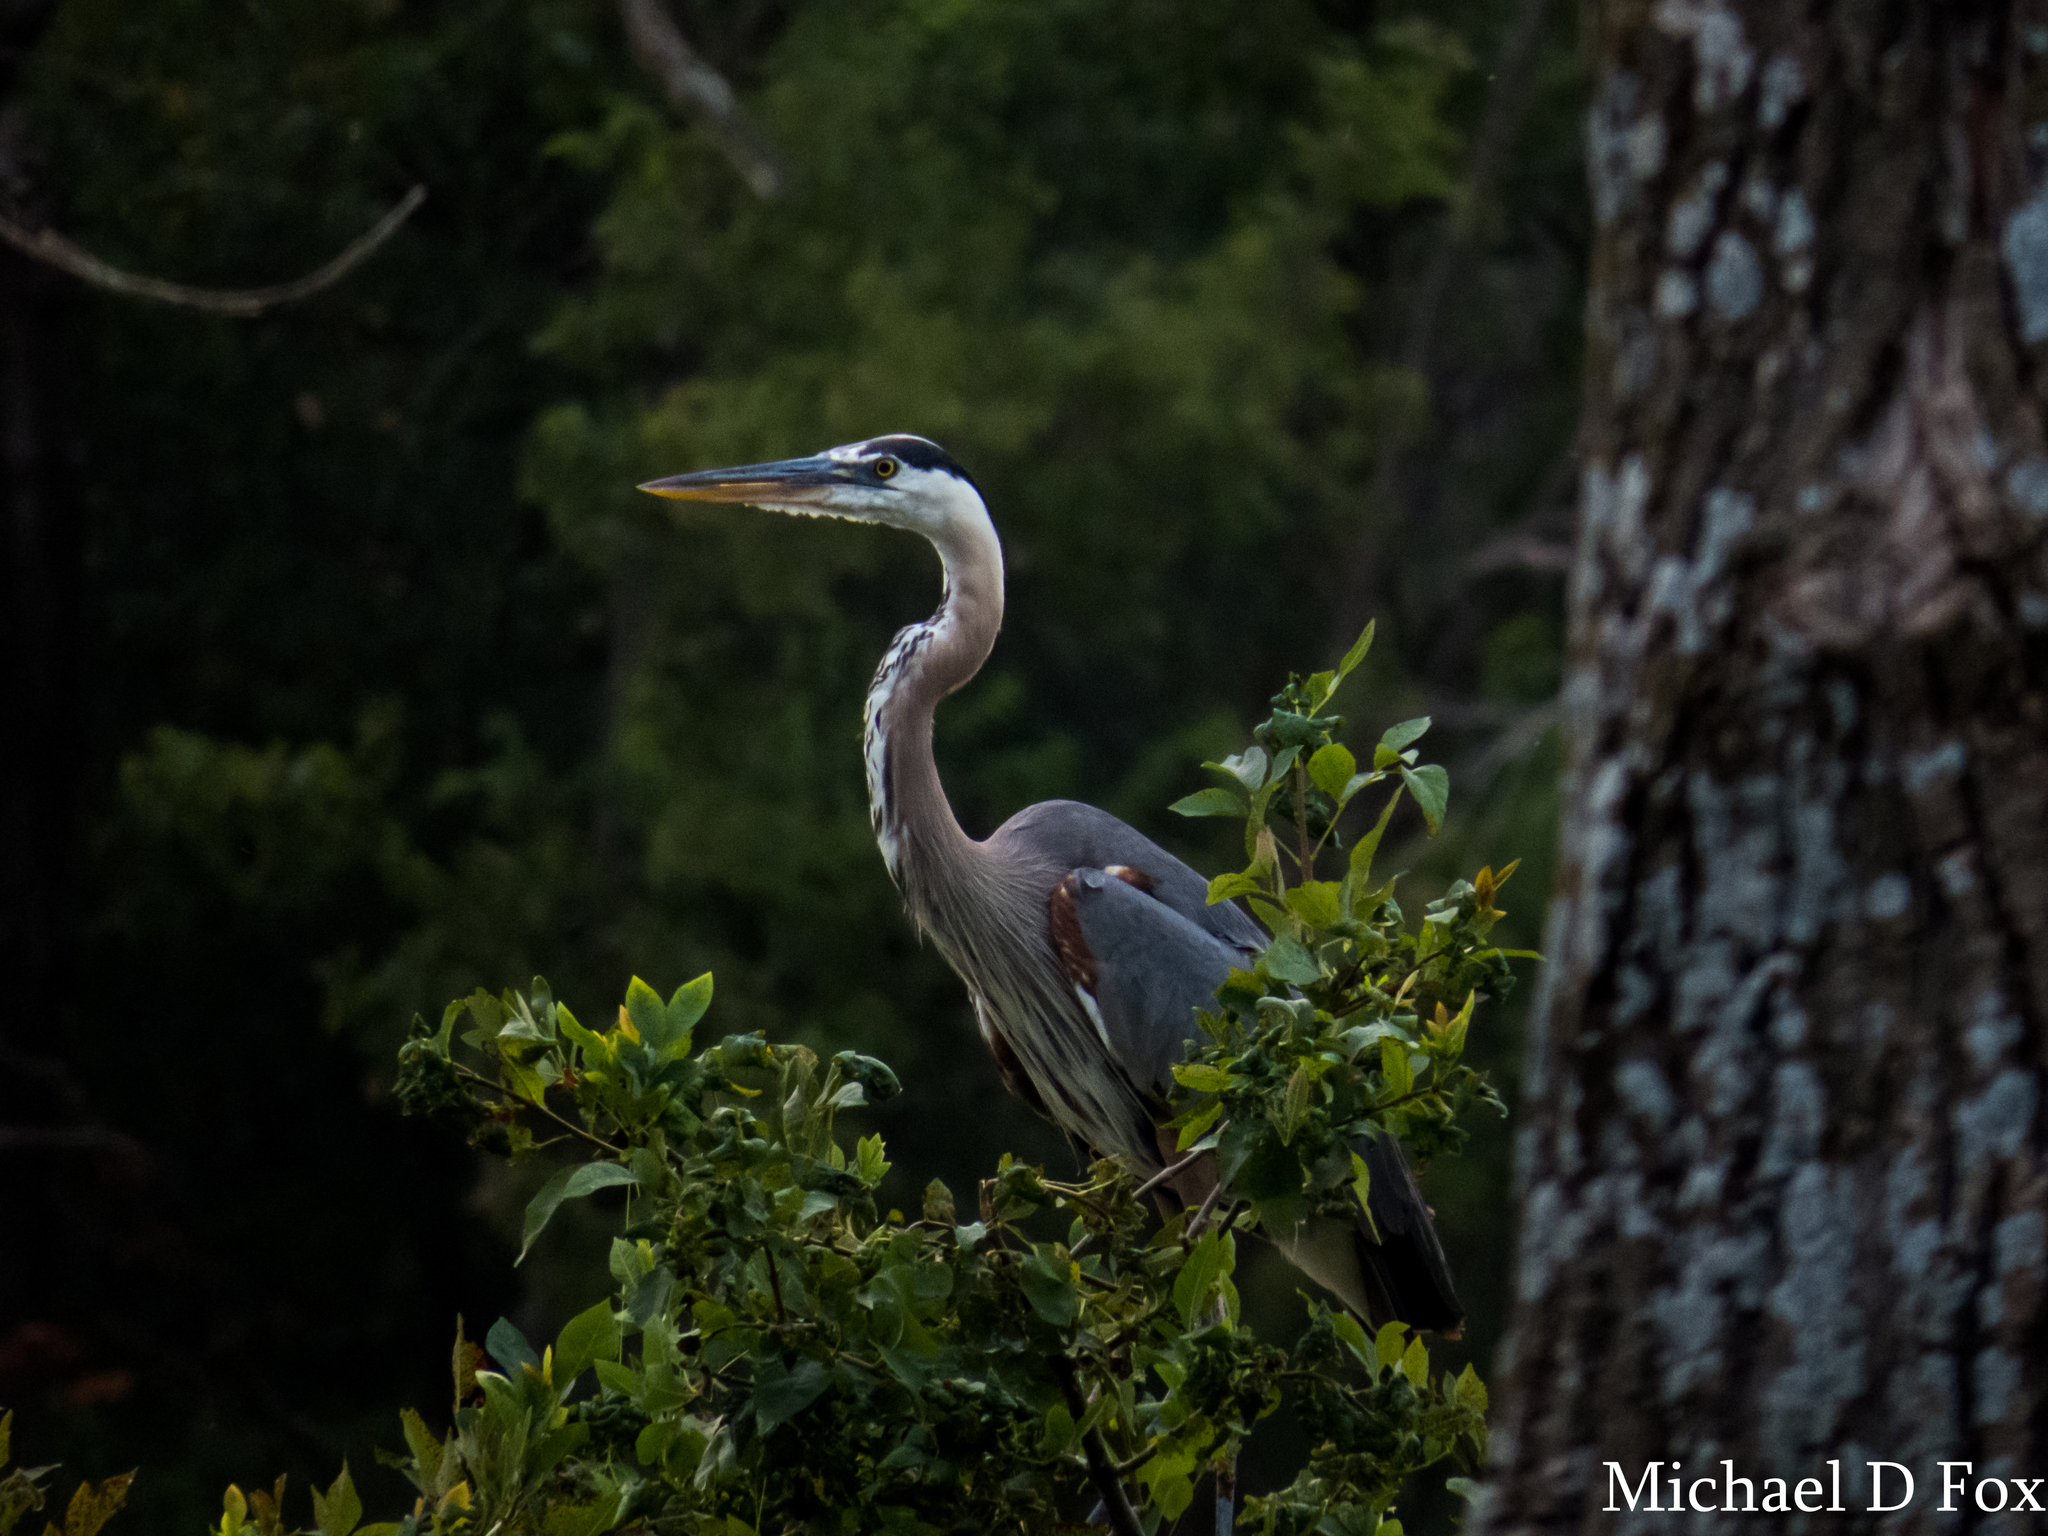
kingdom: Animalia
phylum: Chordata
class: Aves
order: Pelecaniformes
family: Ardeidae
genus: Ardea
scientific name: Ardea herodias
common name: Great blue heron
